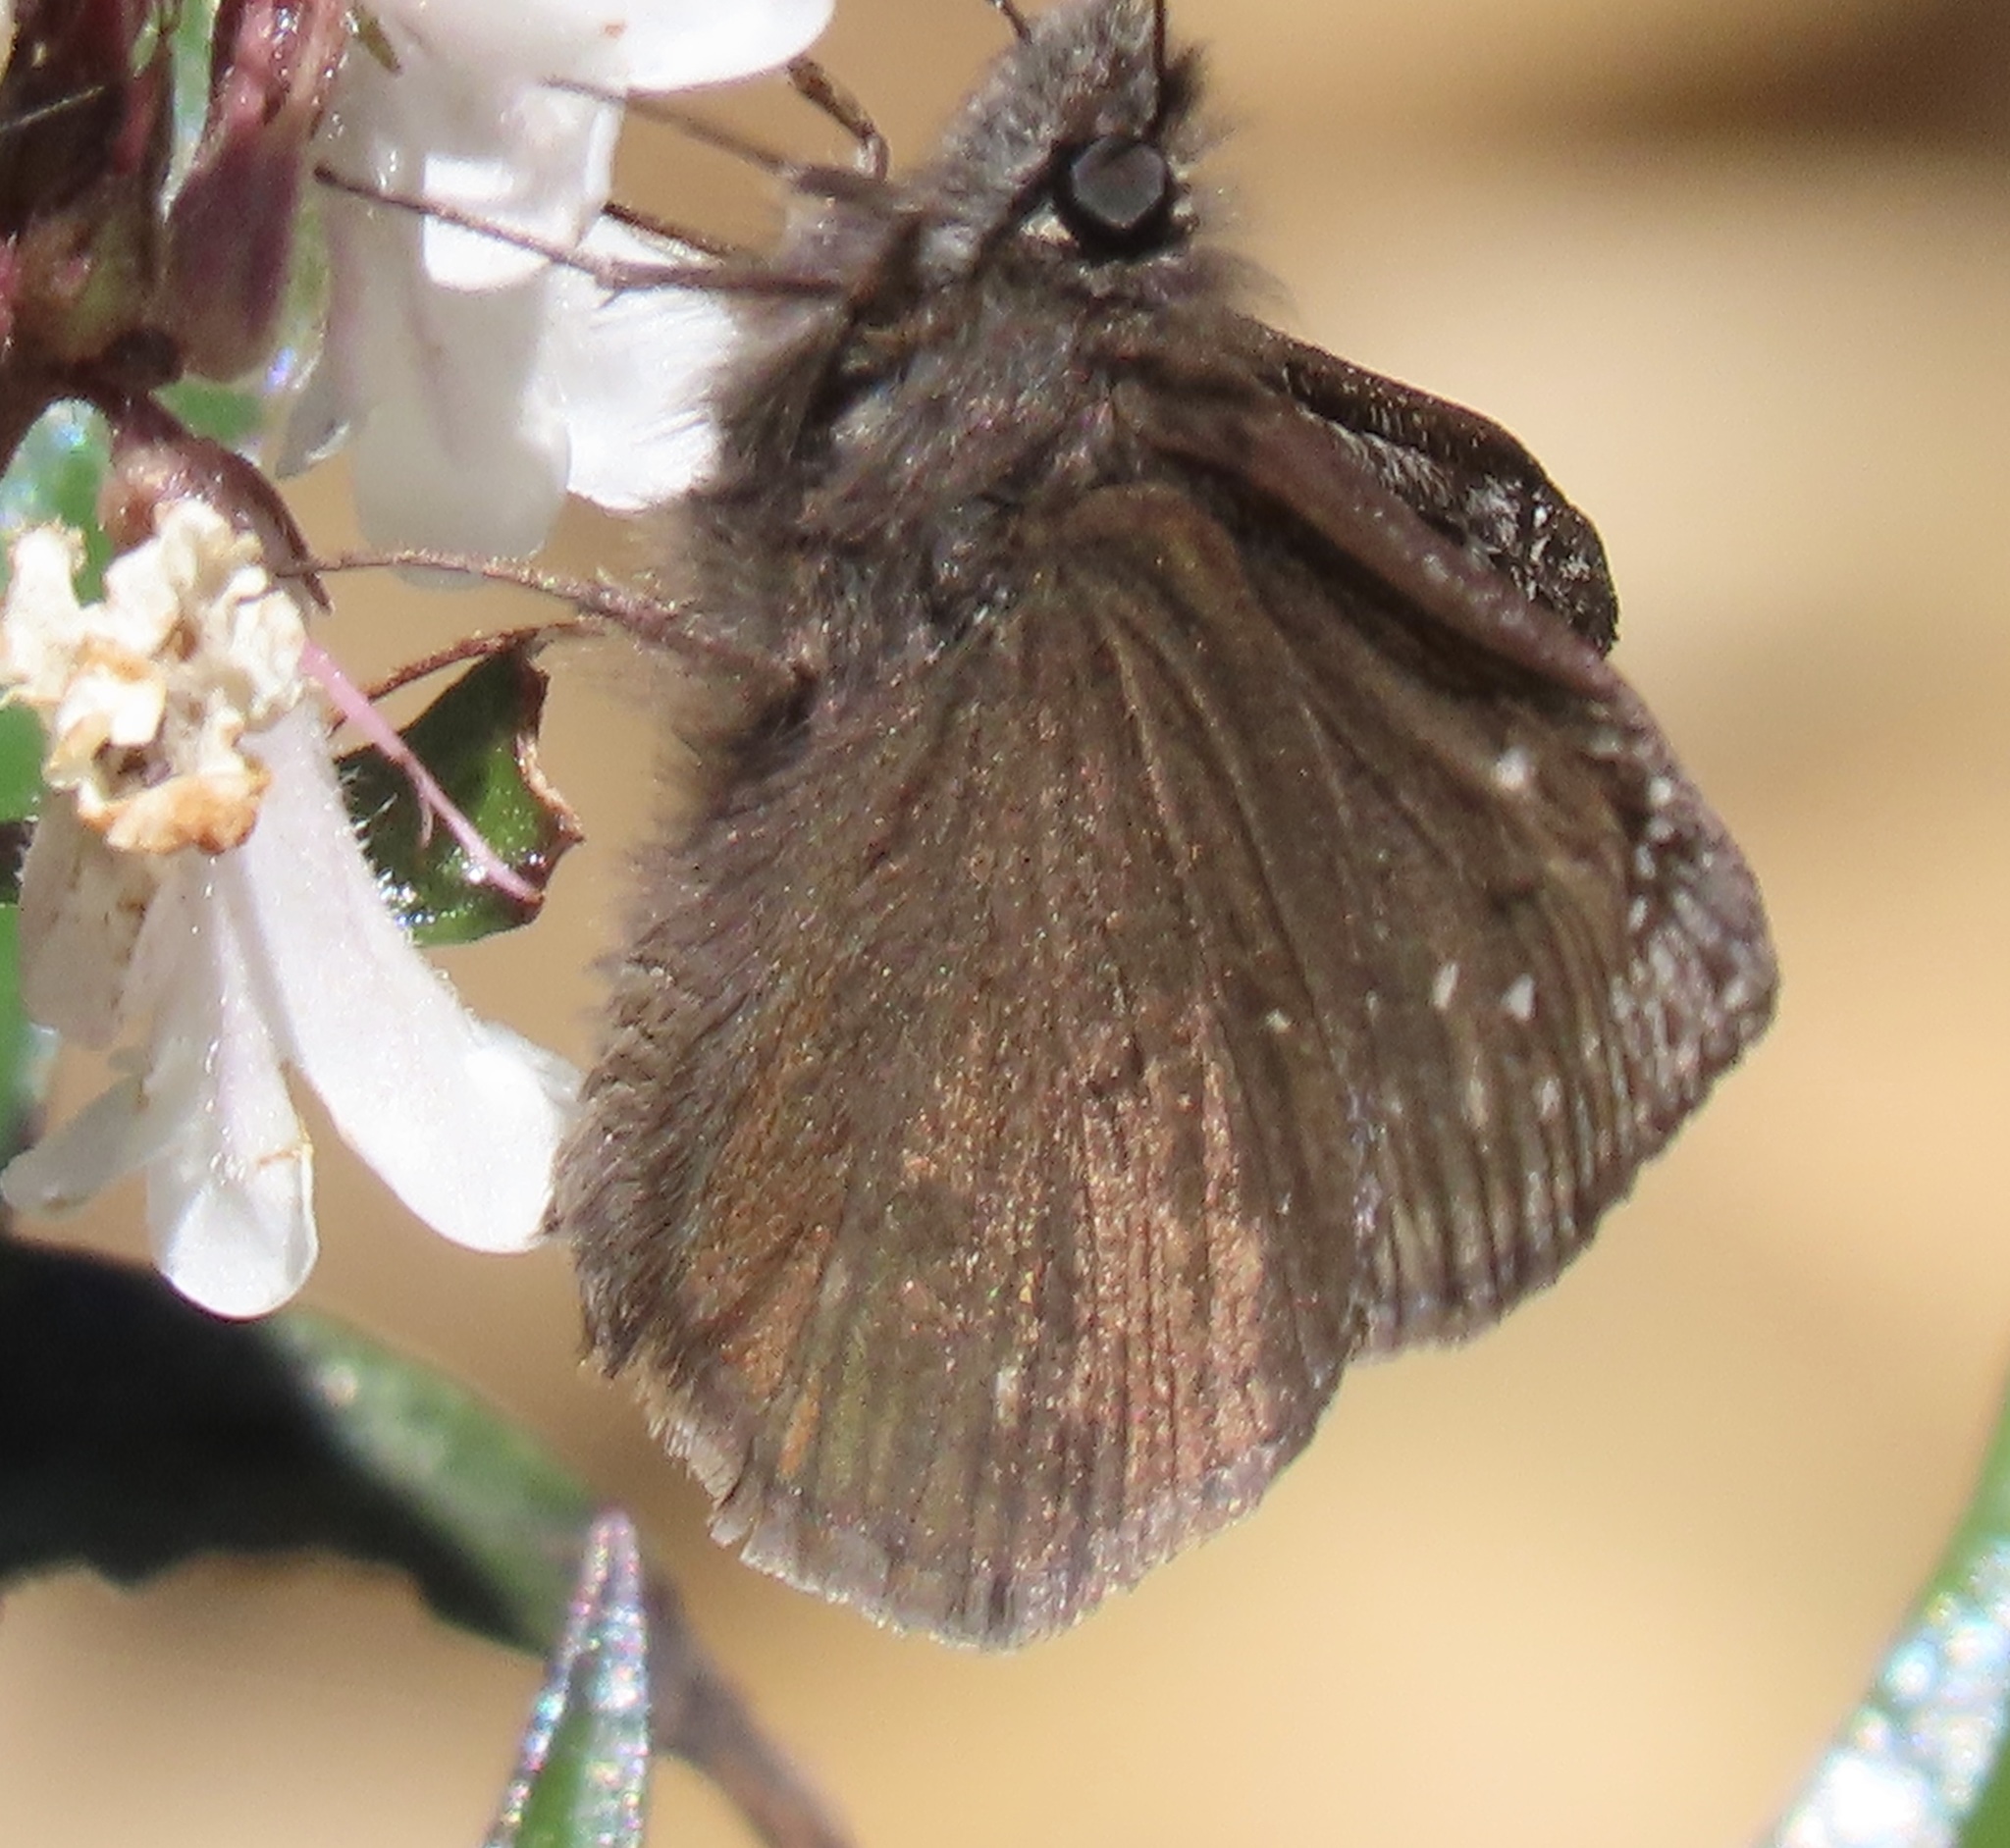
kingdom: Animalia
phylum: Arthropoda
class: Insecta
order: Lepidoptera
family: Hesperiidae
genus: Erynnis
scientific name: Erynnis propertius
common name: Propertius duskywing
